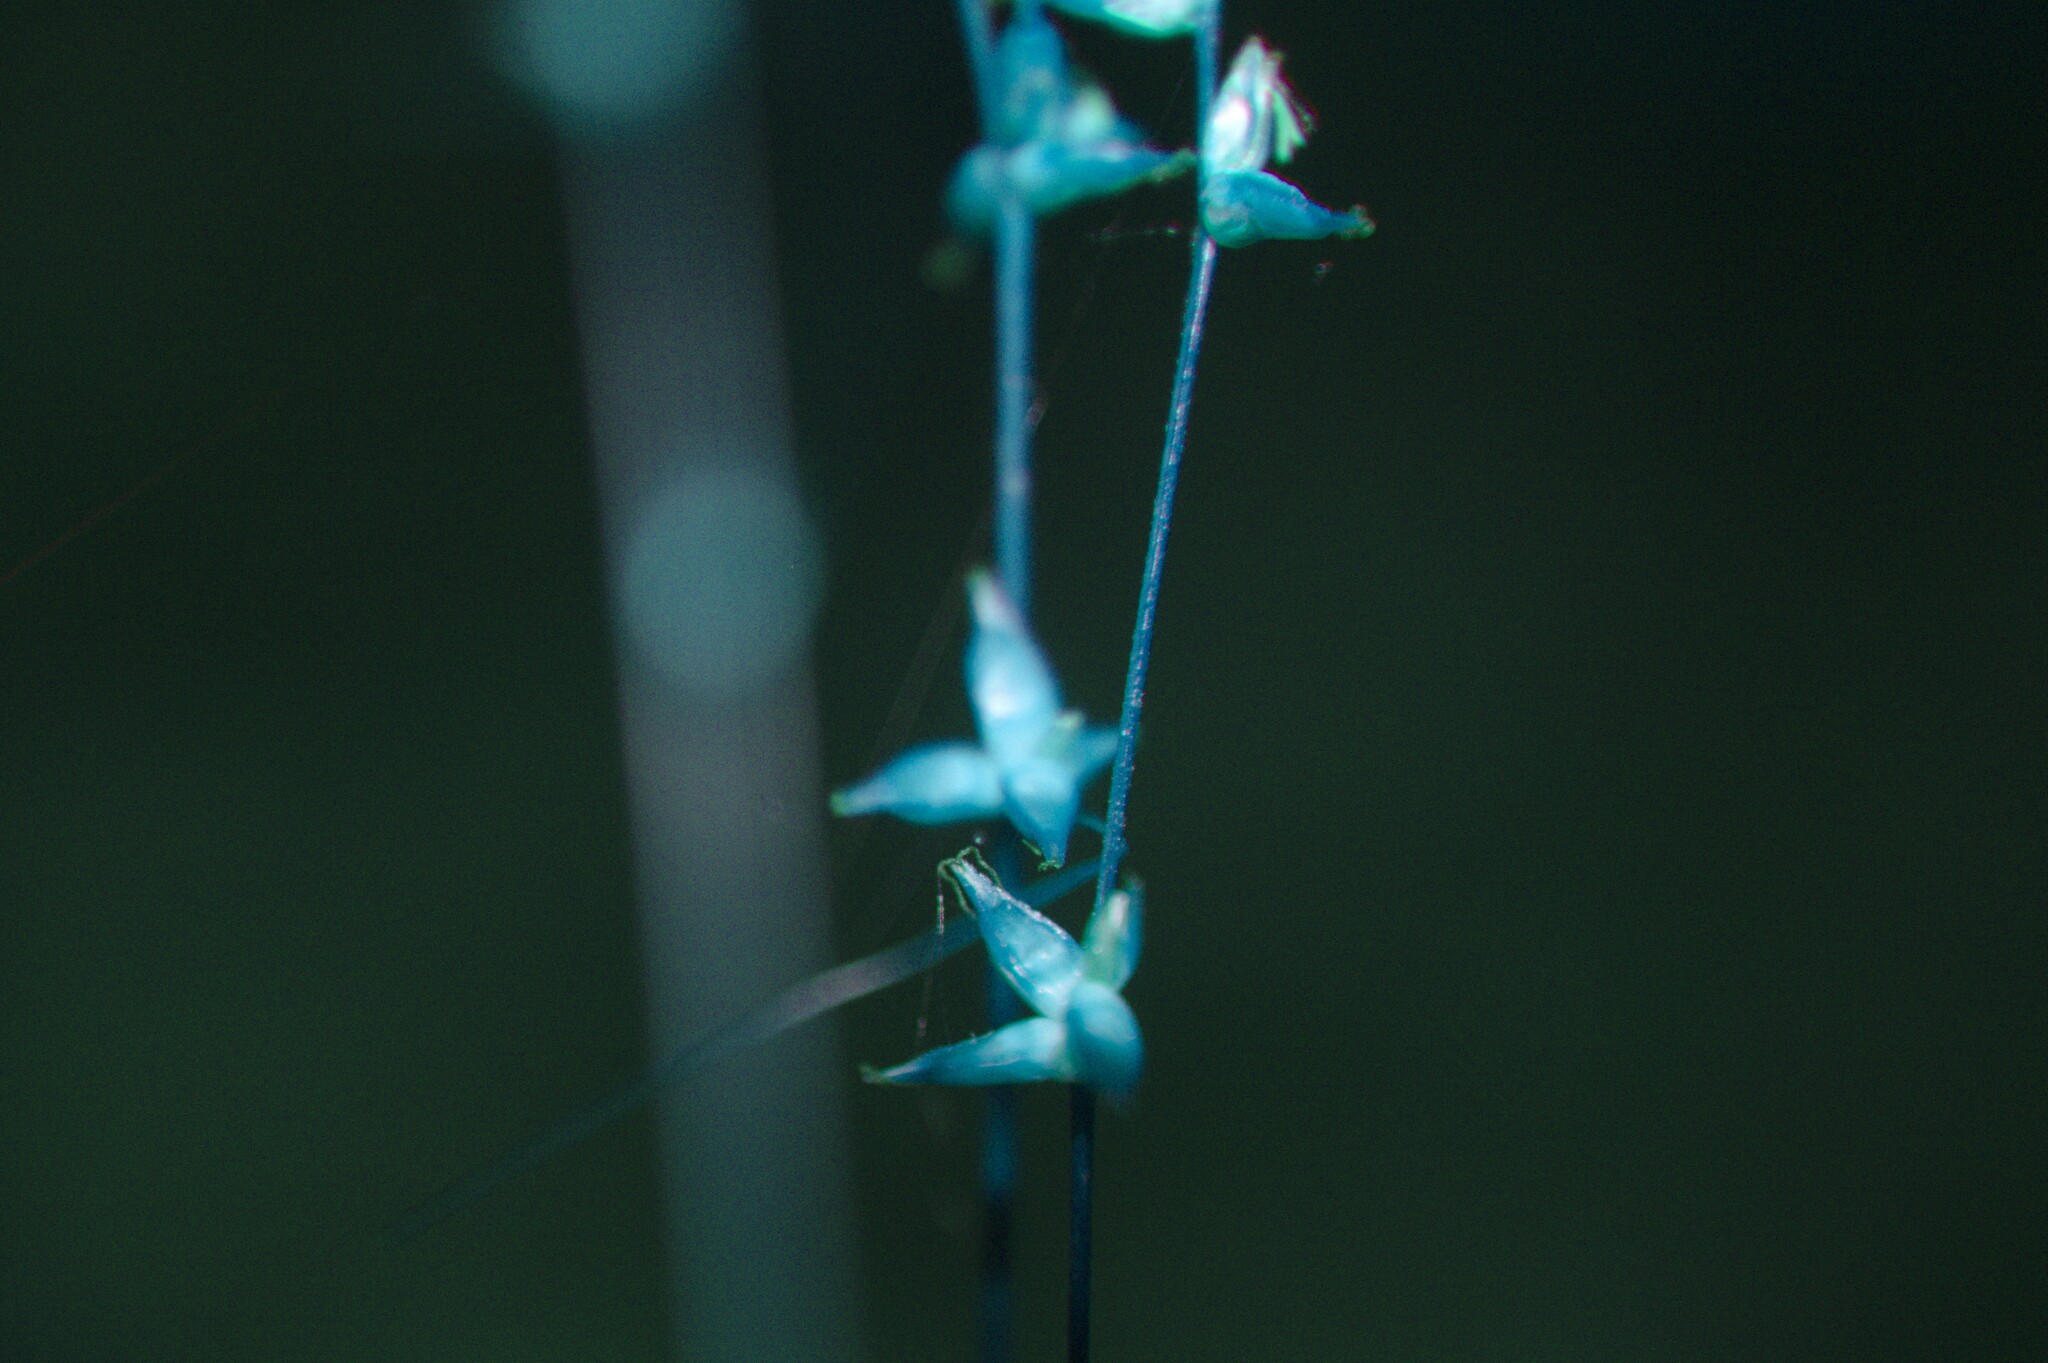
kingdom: Plantae
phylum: Tracheophyta
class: Liliopsida
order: Poales
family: Cyperaceae
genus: Carex
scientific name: Carex radiata
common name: Eastern star sedge
